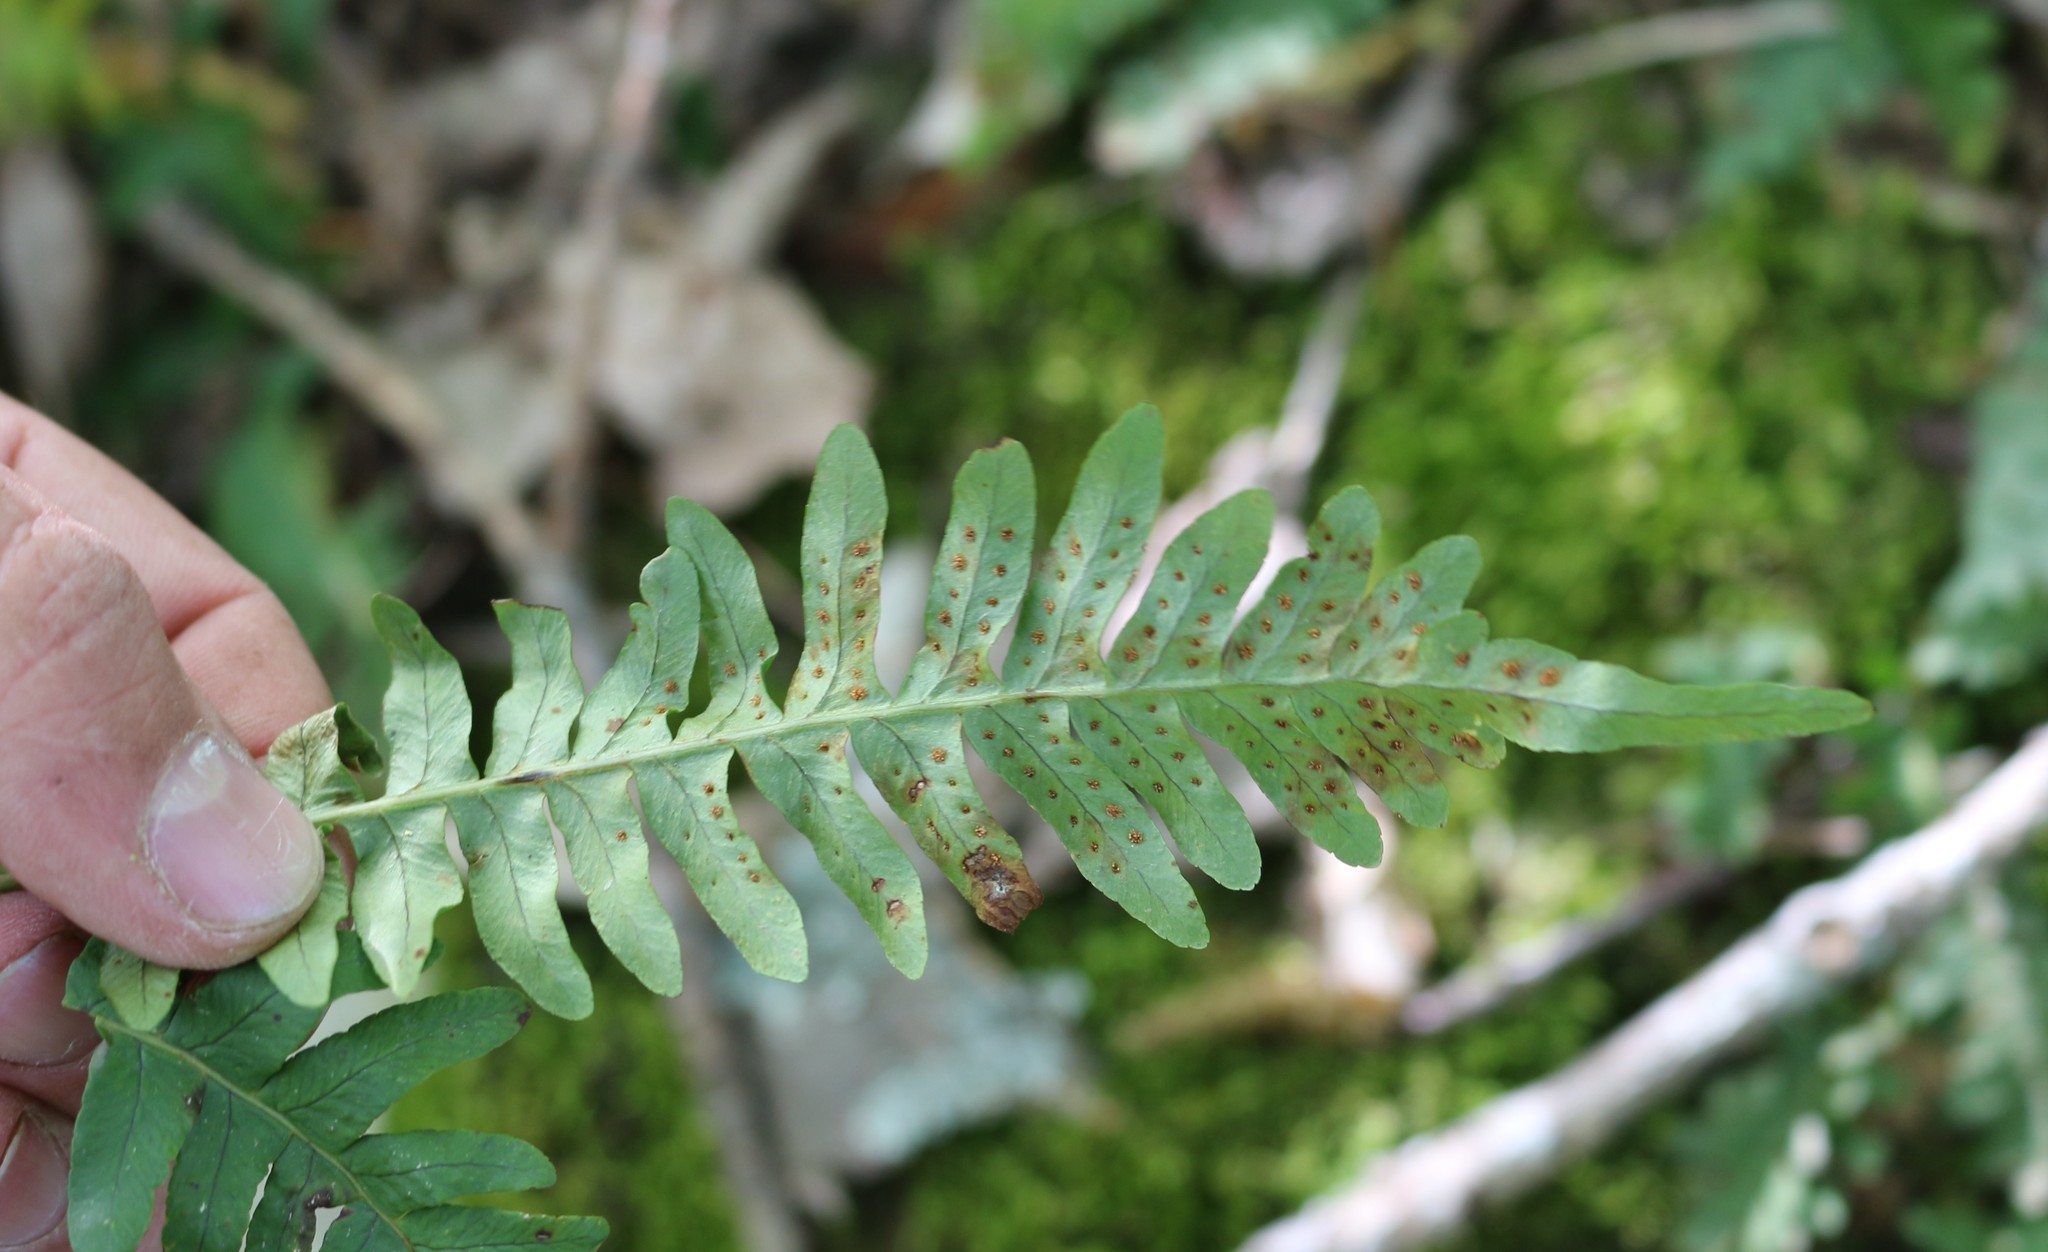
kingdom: Plantae
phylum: Tracheophyta
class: Polypodiopsida
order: Polypodiales
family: Polypodiaceae
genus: Polypodium
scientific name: Polypodium vulgare
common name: Common polypody
